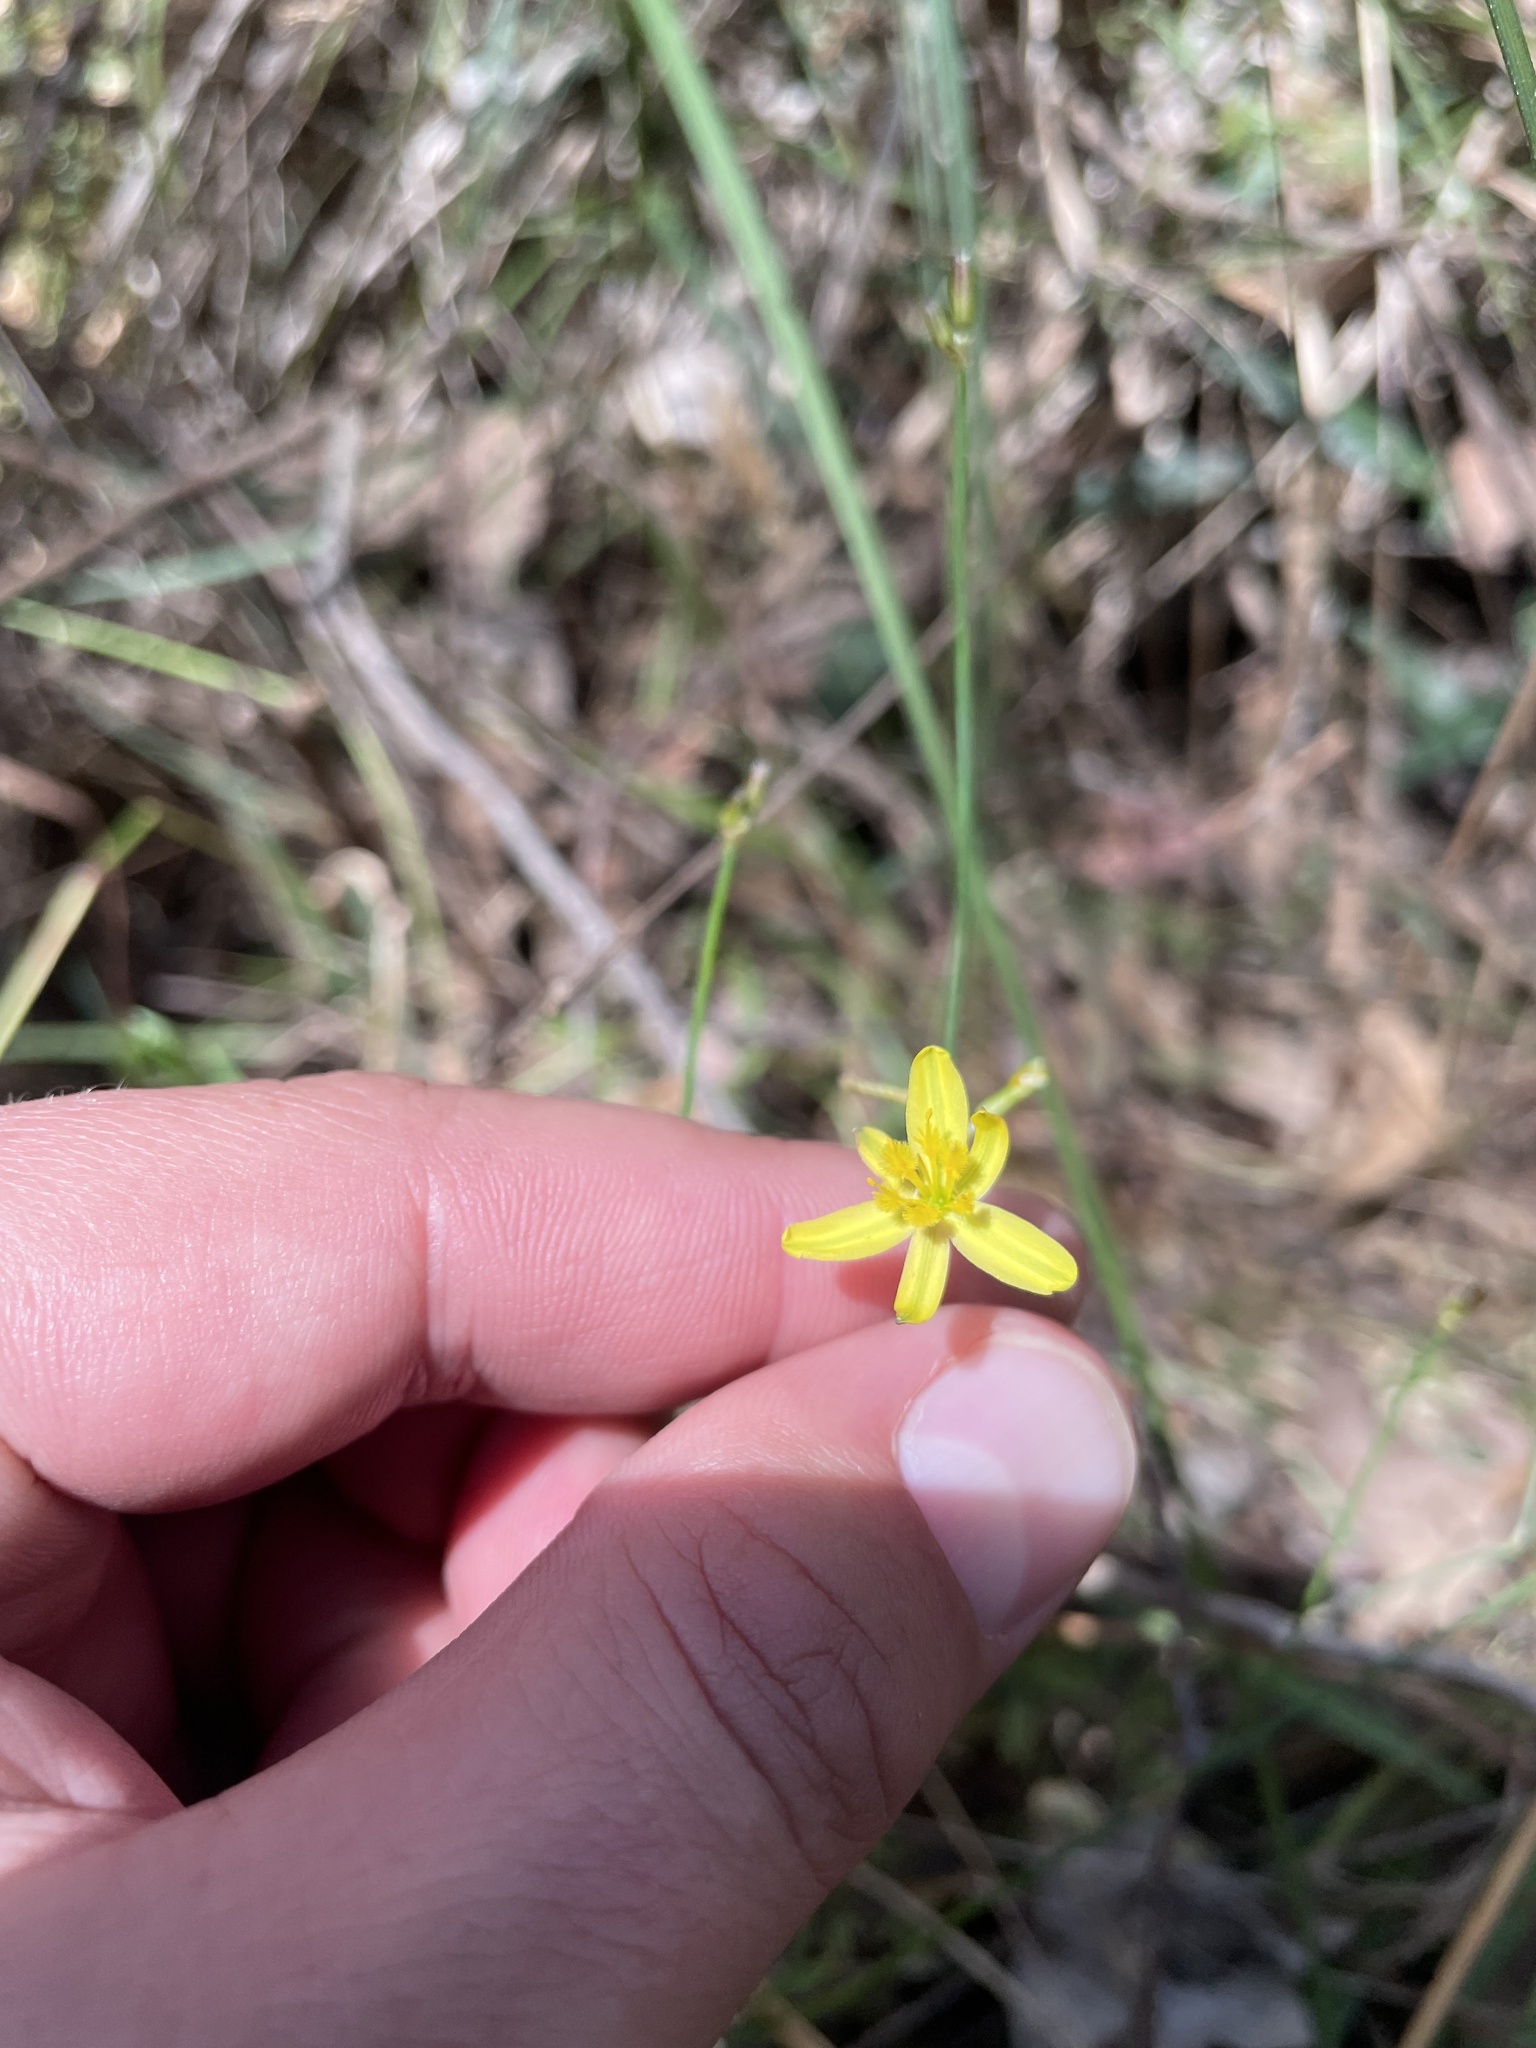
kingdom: Plantae
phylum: Tracheophyta
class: Liliopsida
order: Asparagales
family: Asphodelaceae
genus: Tricoryne
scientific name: Tricoryne elatior
